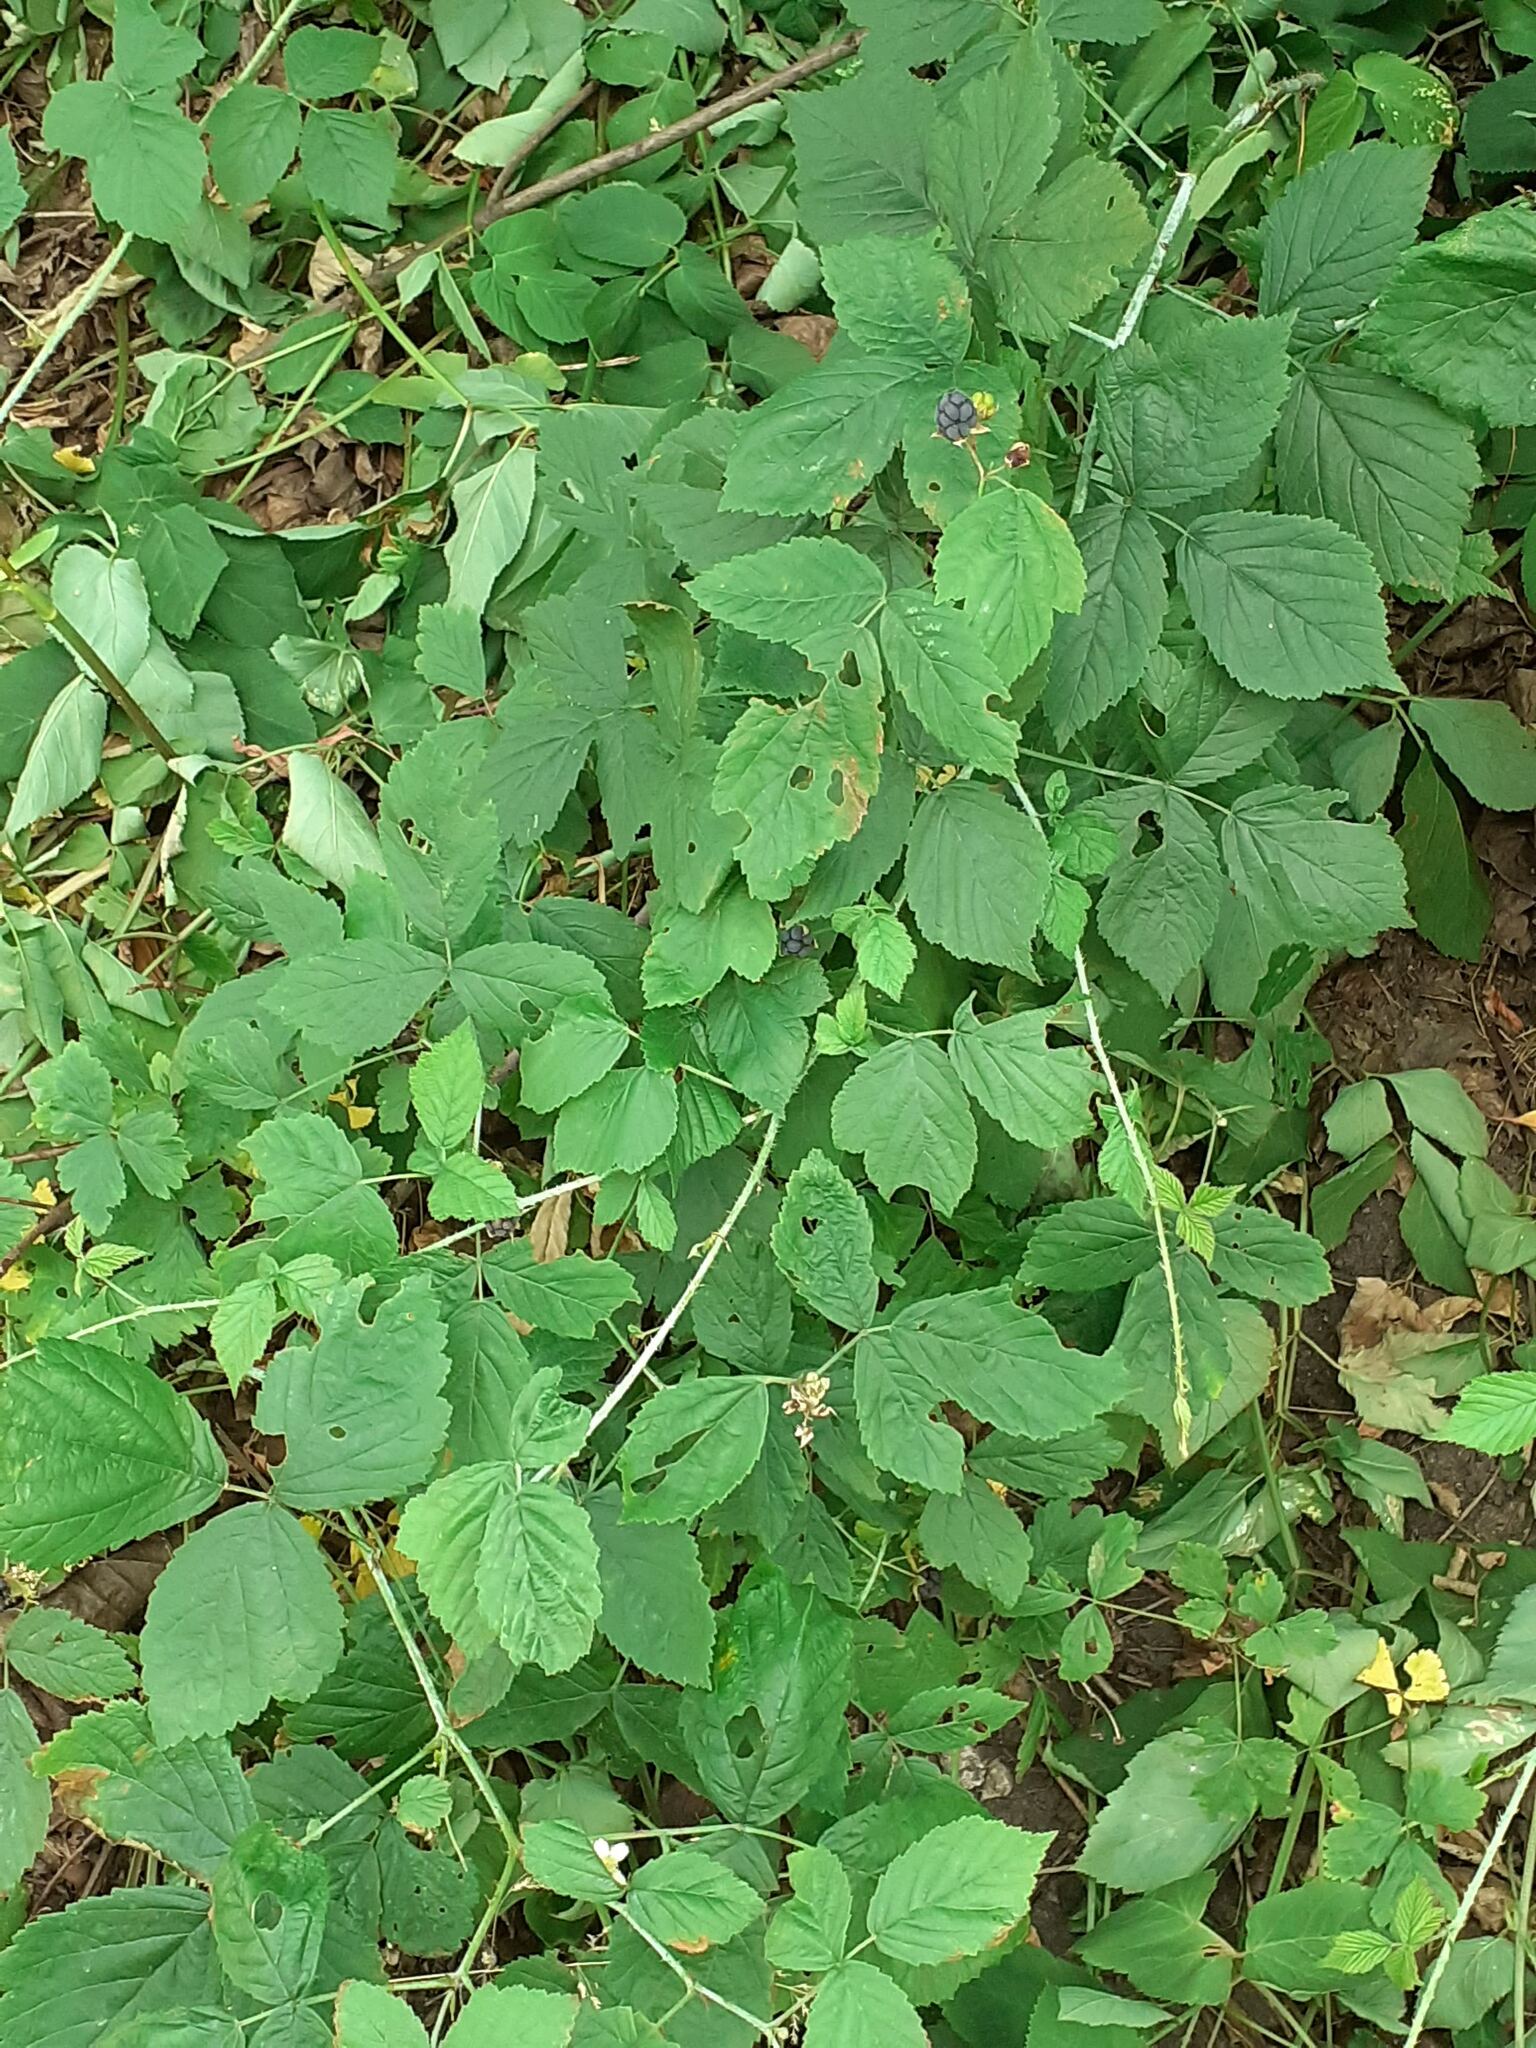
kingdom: Plantae
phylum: Tracheophyta
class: Magnoliopsida
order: Rosales
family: Rosaceae
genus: Rubus
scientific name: Rubus caesius
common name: Dewberry
